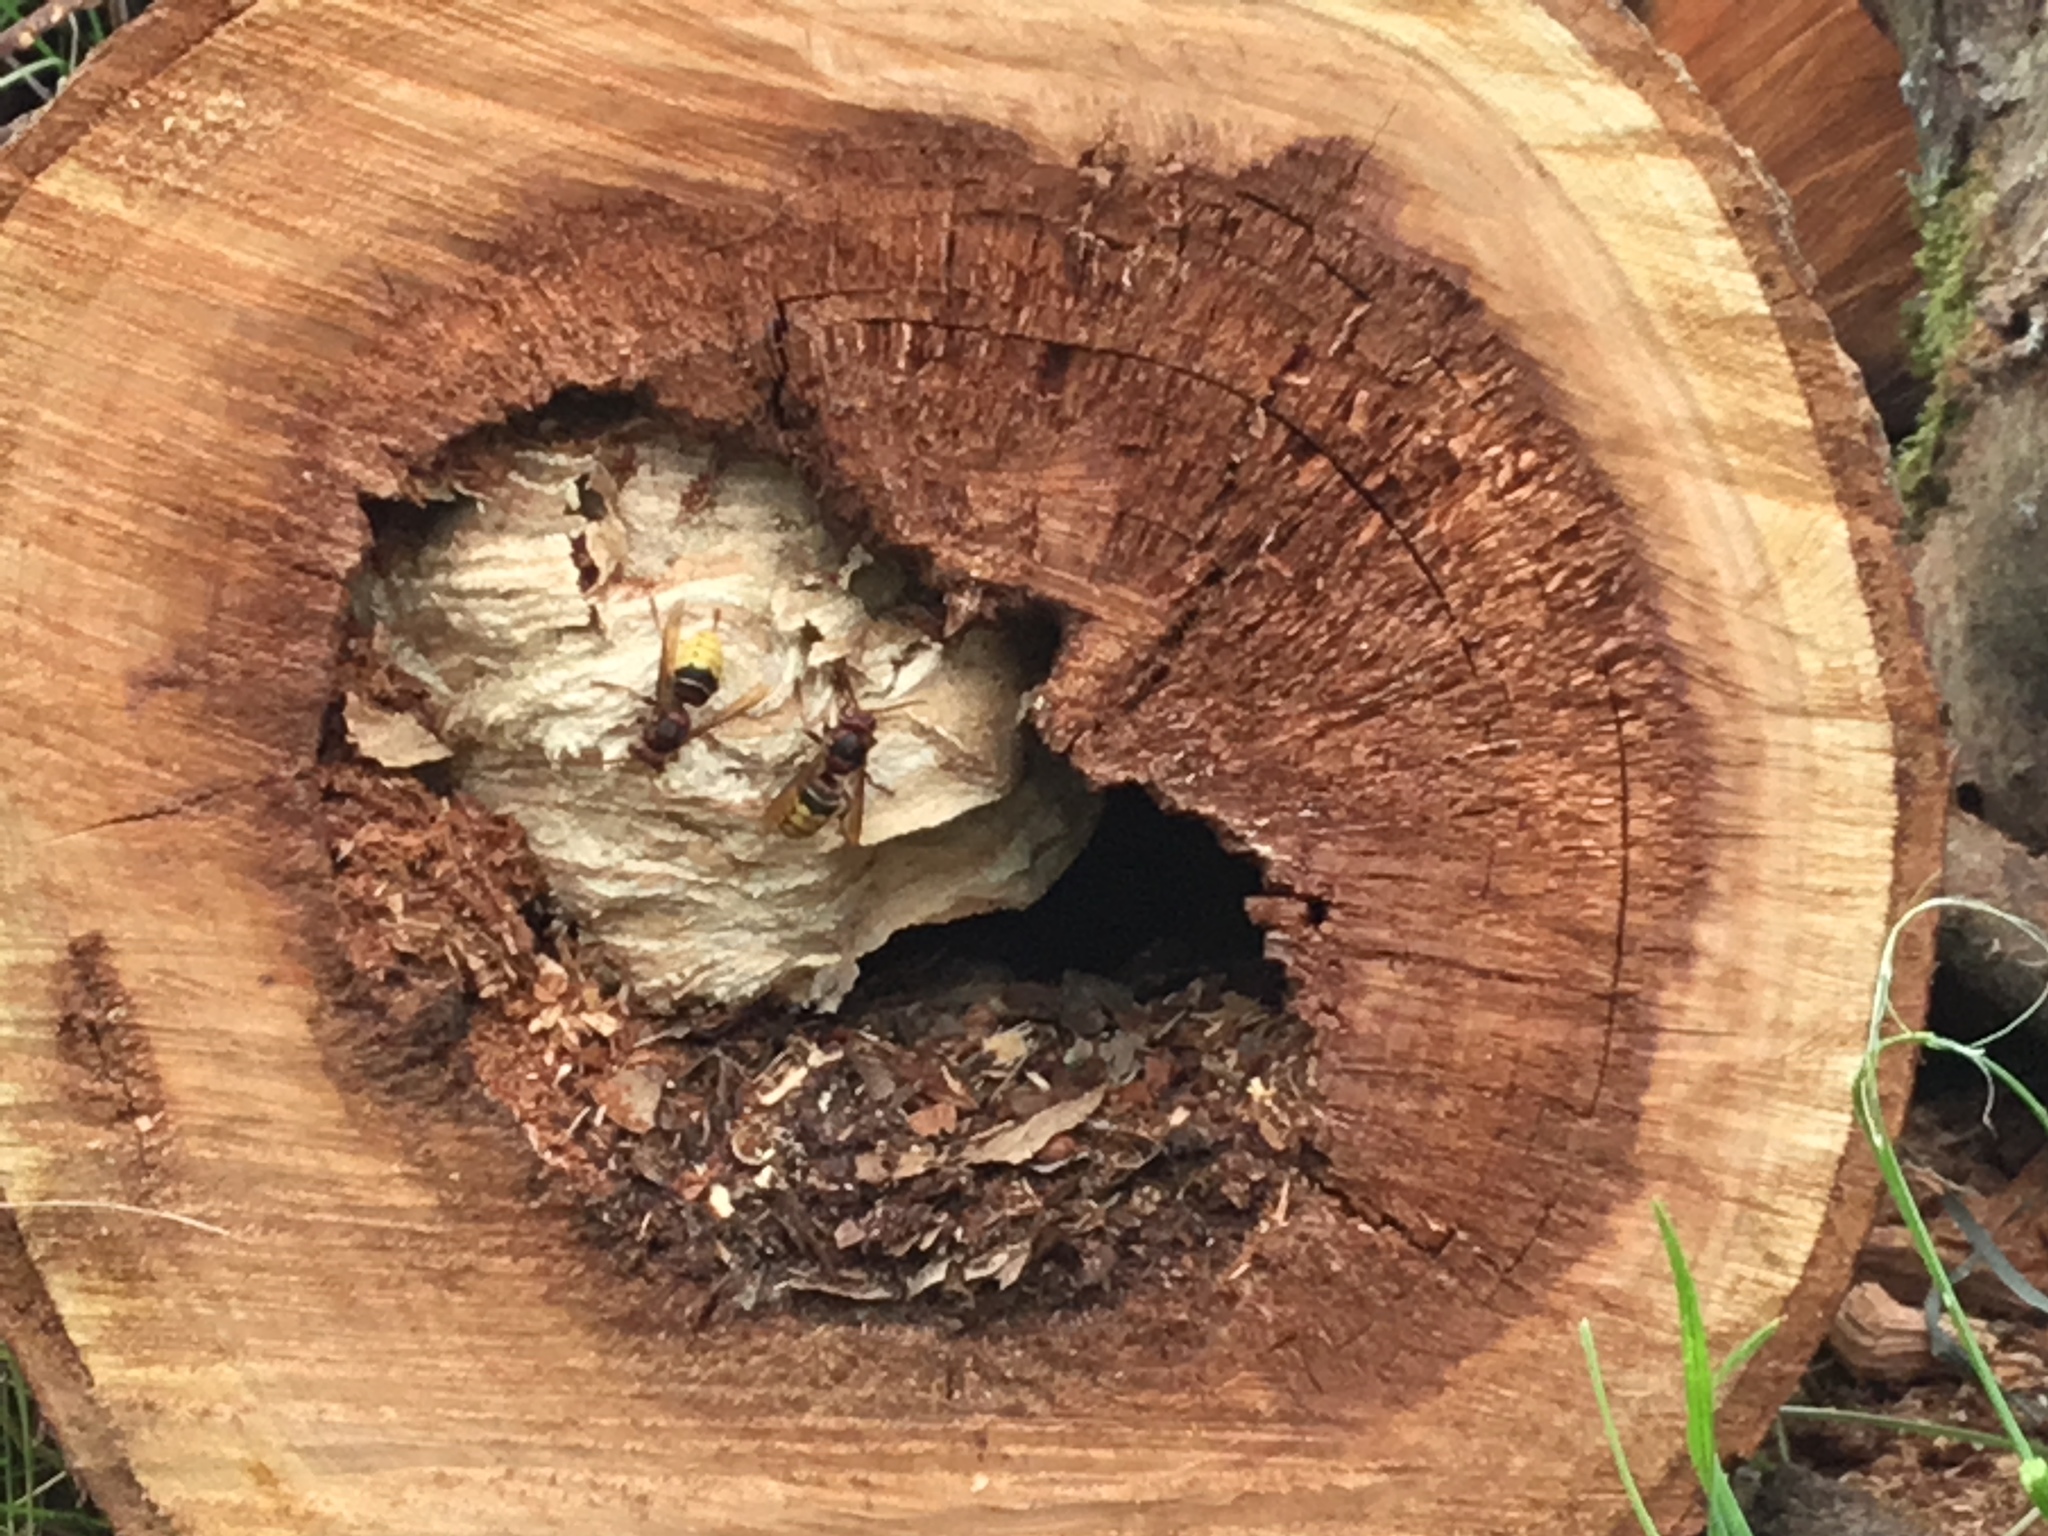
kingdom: Animalia
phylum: Arthropoda
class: Insecta
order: Hymenoptera
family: Vespidae
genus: Vespa
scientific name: Vespa crabro
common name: Hornet
